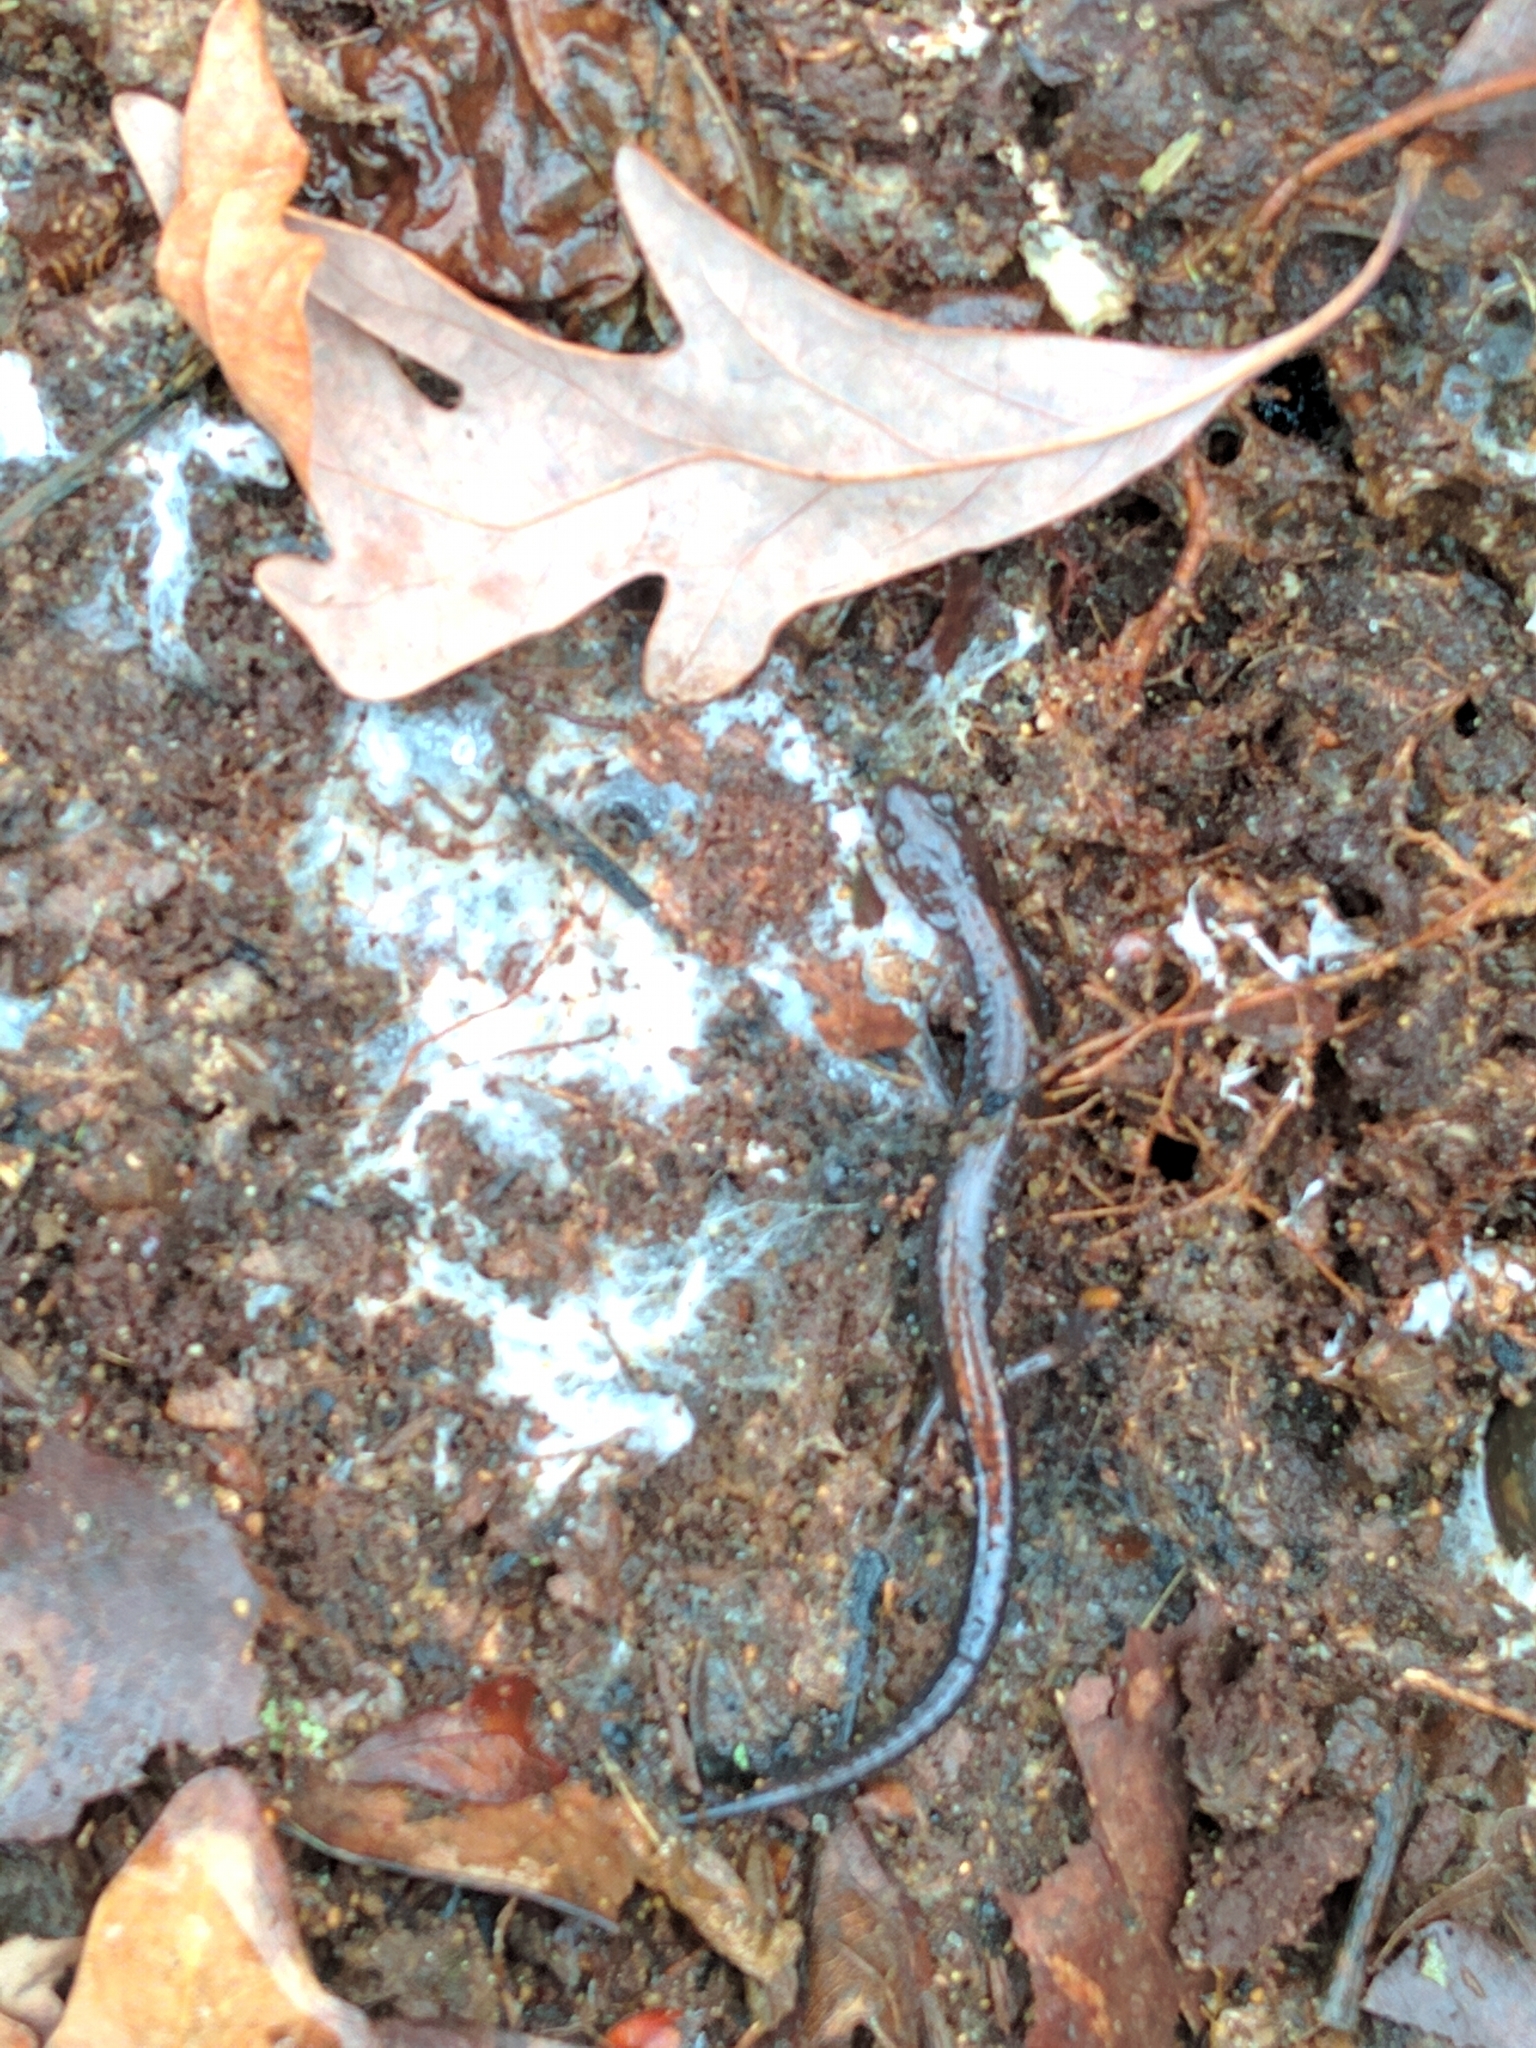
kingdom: Animalia
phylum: Chordata
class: Amphibia
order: Caudata
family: Plethodontidae
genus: Plethodon
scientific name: Plethodon cinereus
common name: Redback salamander
